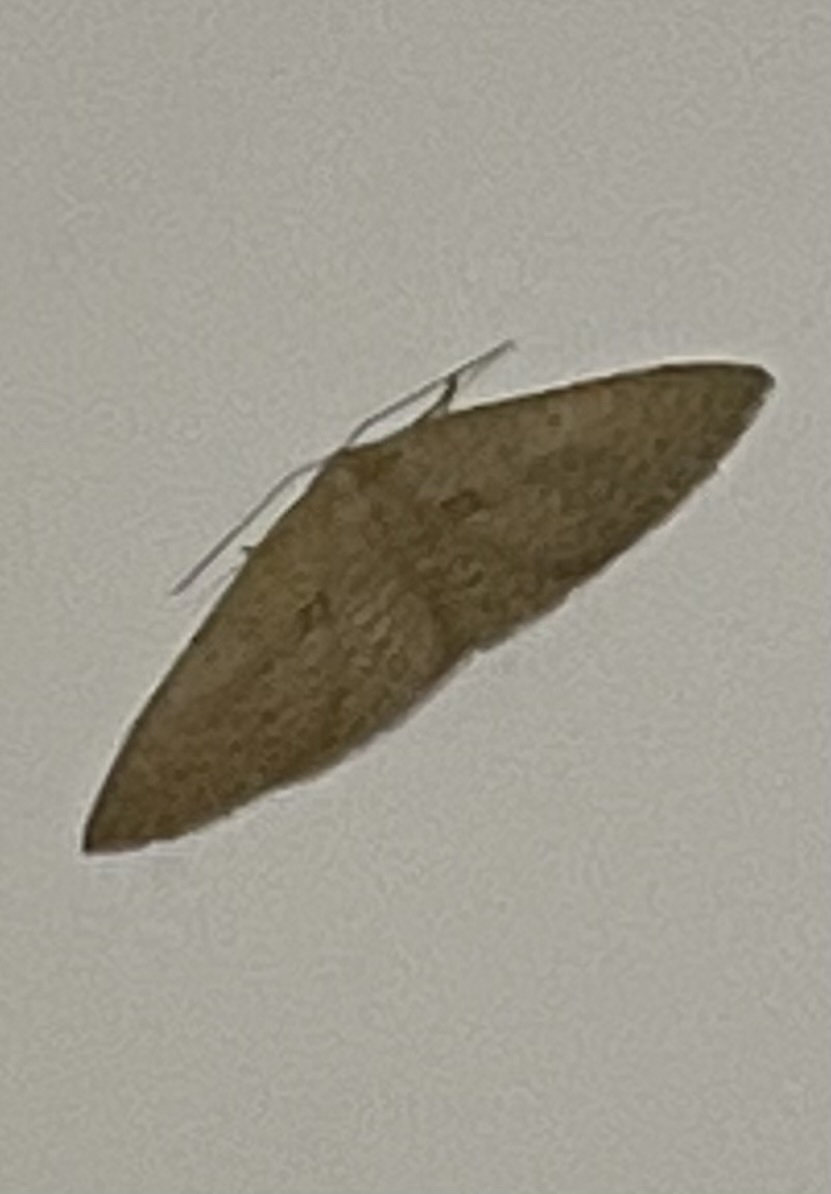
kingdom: Animalia
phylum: Arthropoda
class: Insecta
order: Lepidoptera
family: Geometridae
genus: Poecilasthena
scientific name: Poecilasthena schistaria
